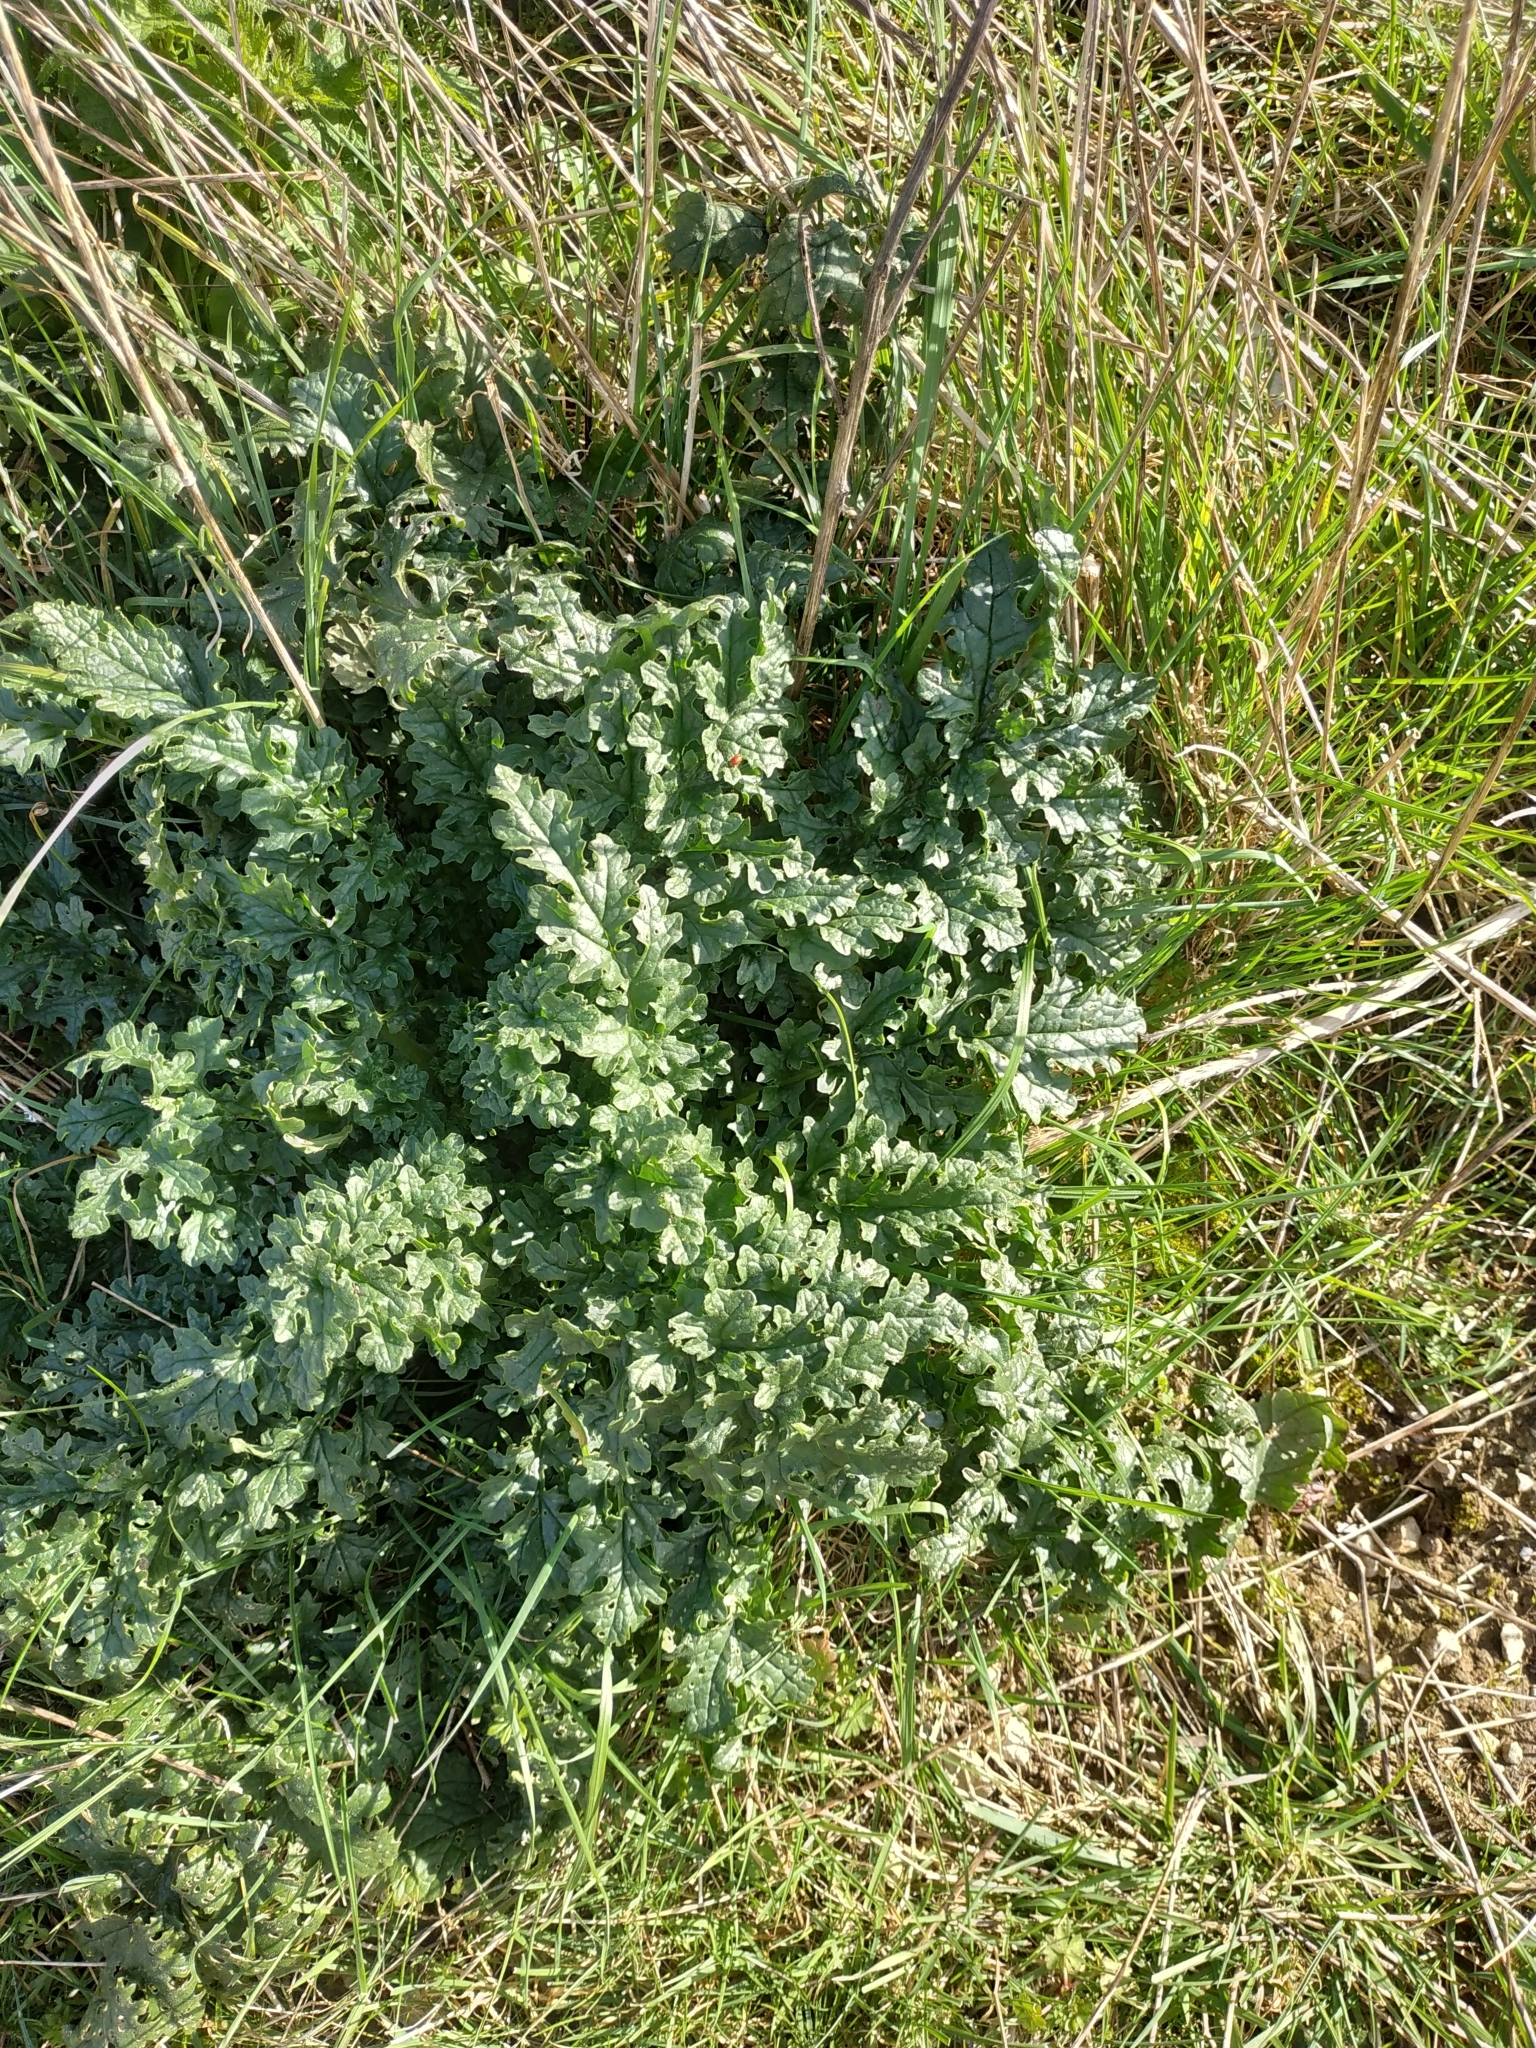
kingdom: Plantae
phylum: Tracheophyta
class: Magnoliopsida
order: Asterales
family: Asteraceae
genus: Jacobaea
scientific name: Jacobaea vulgaris
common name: Stinking willie
